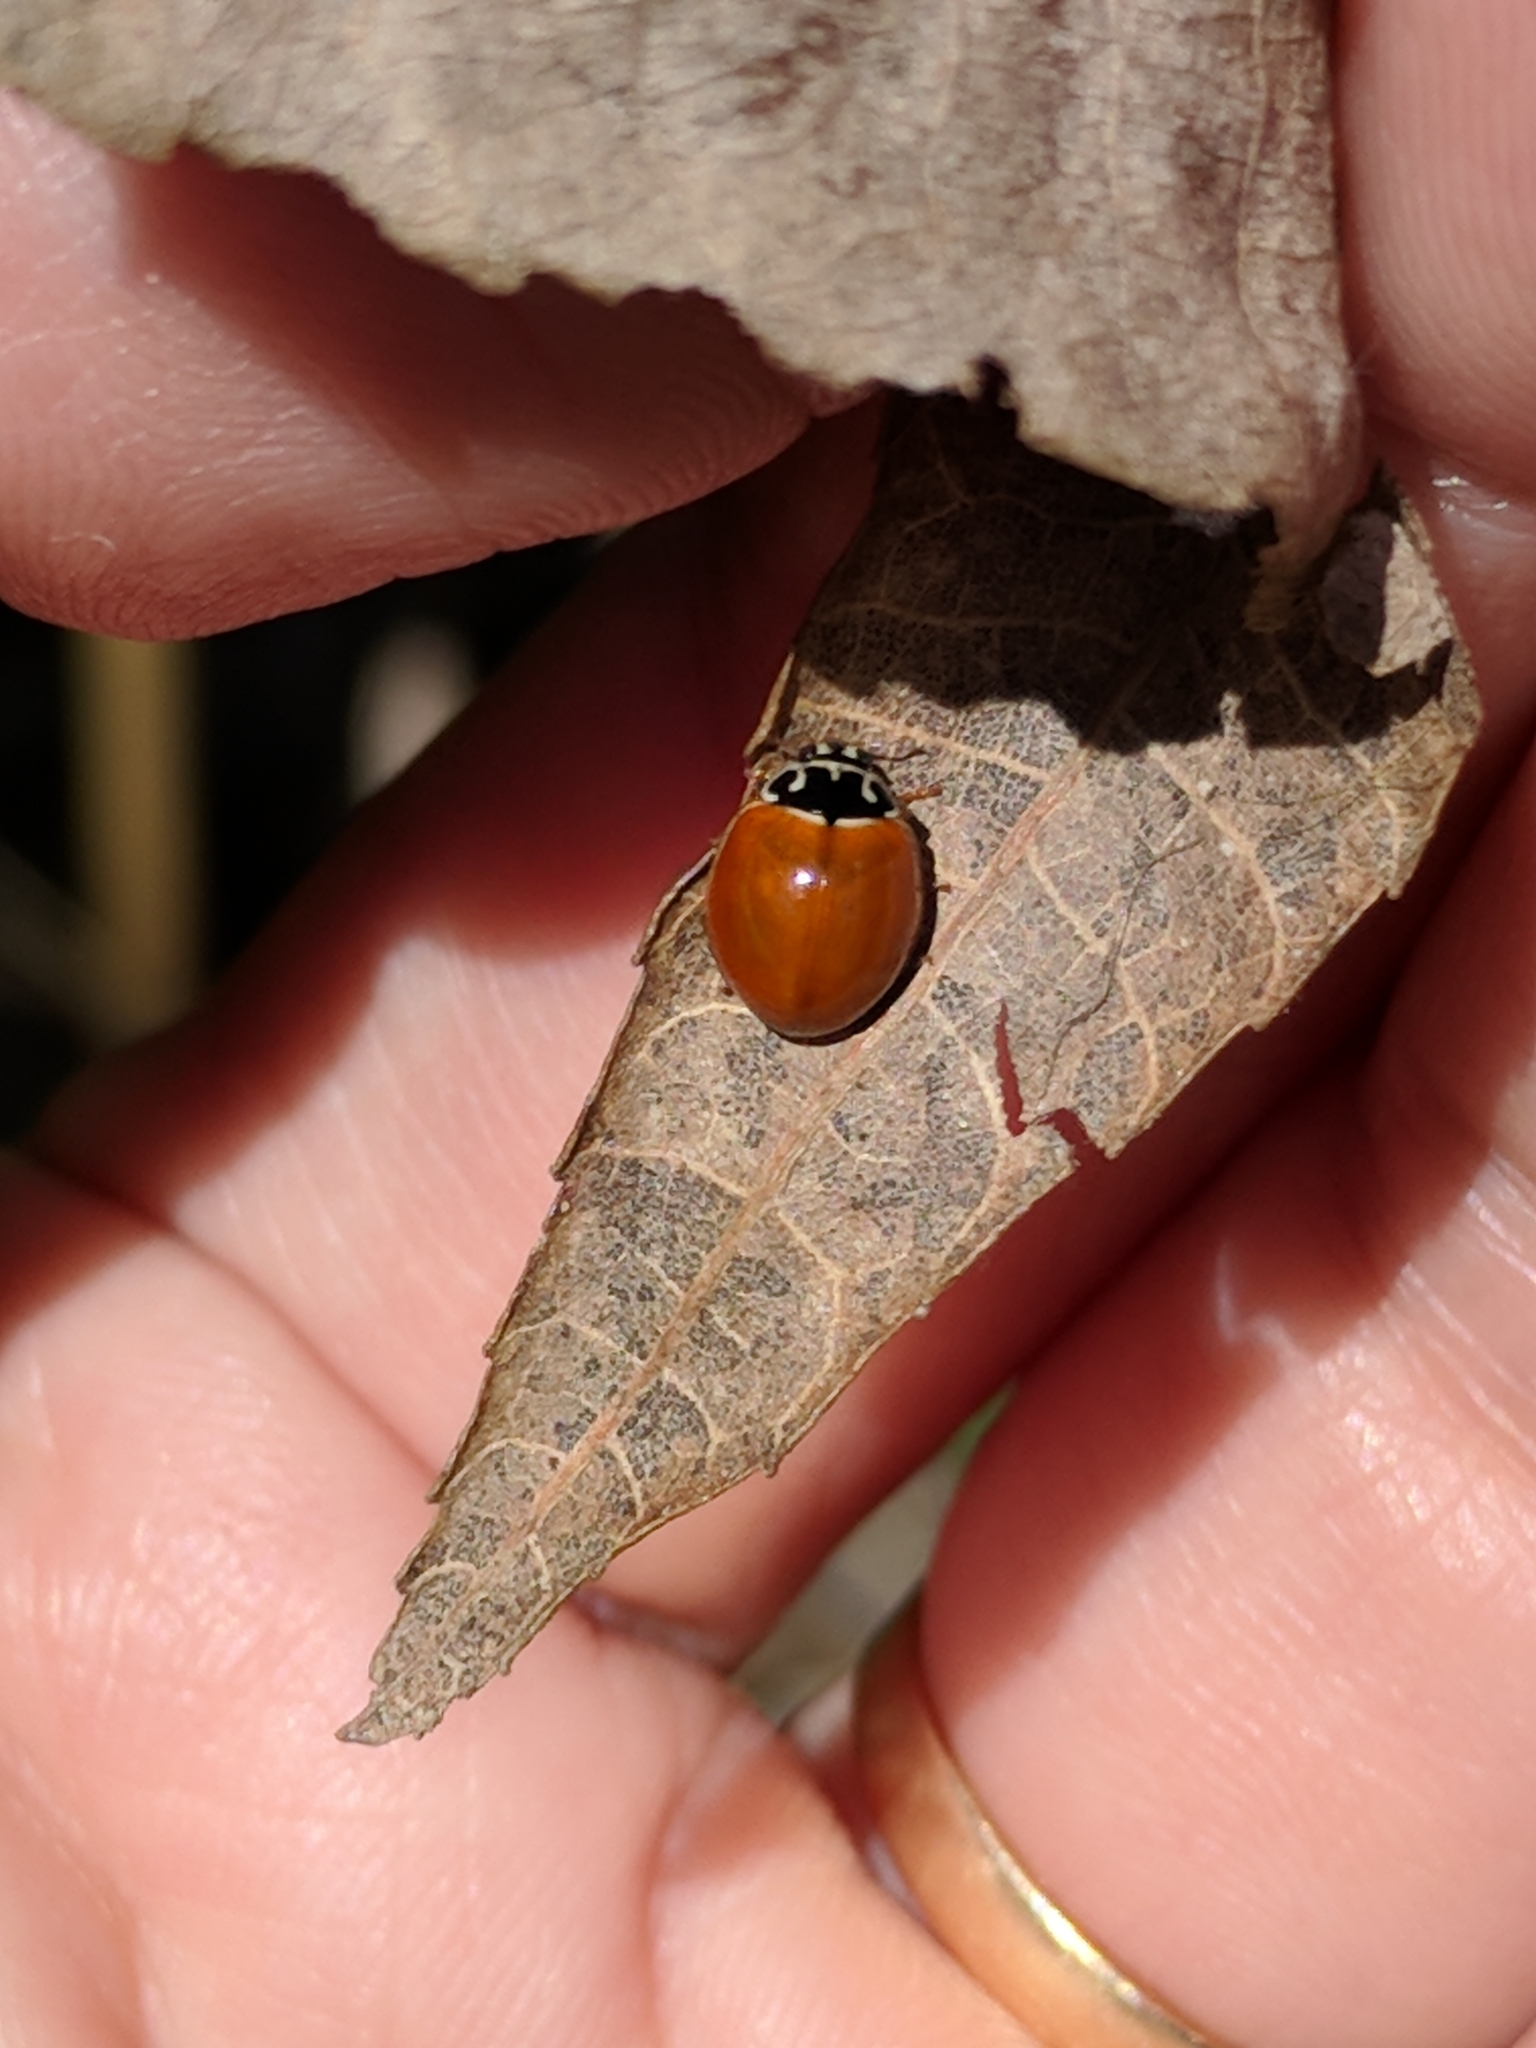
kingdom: Animalia
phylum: Arthropoda
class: Insecta
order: Coleoptera
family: Coccinellidae
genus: Cycloneda
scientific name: Cycloneda munda
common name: Polished lady beetle
